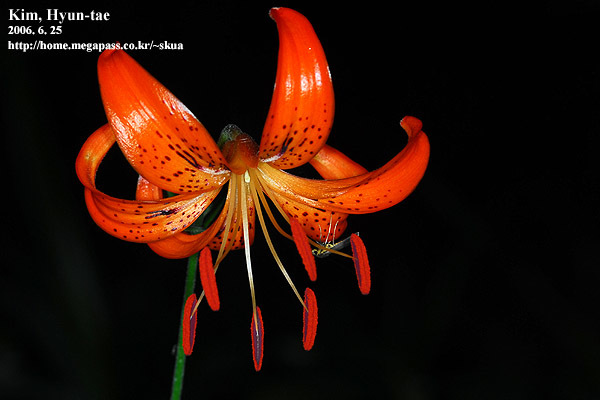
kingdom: Plantae
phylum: Tracheophyta
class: Liliopsida
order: Liliales
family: Liliaceae
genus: Lilium
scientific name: Lilium leichtlinii
